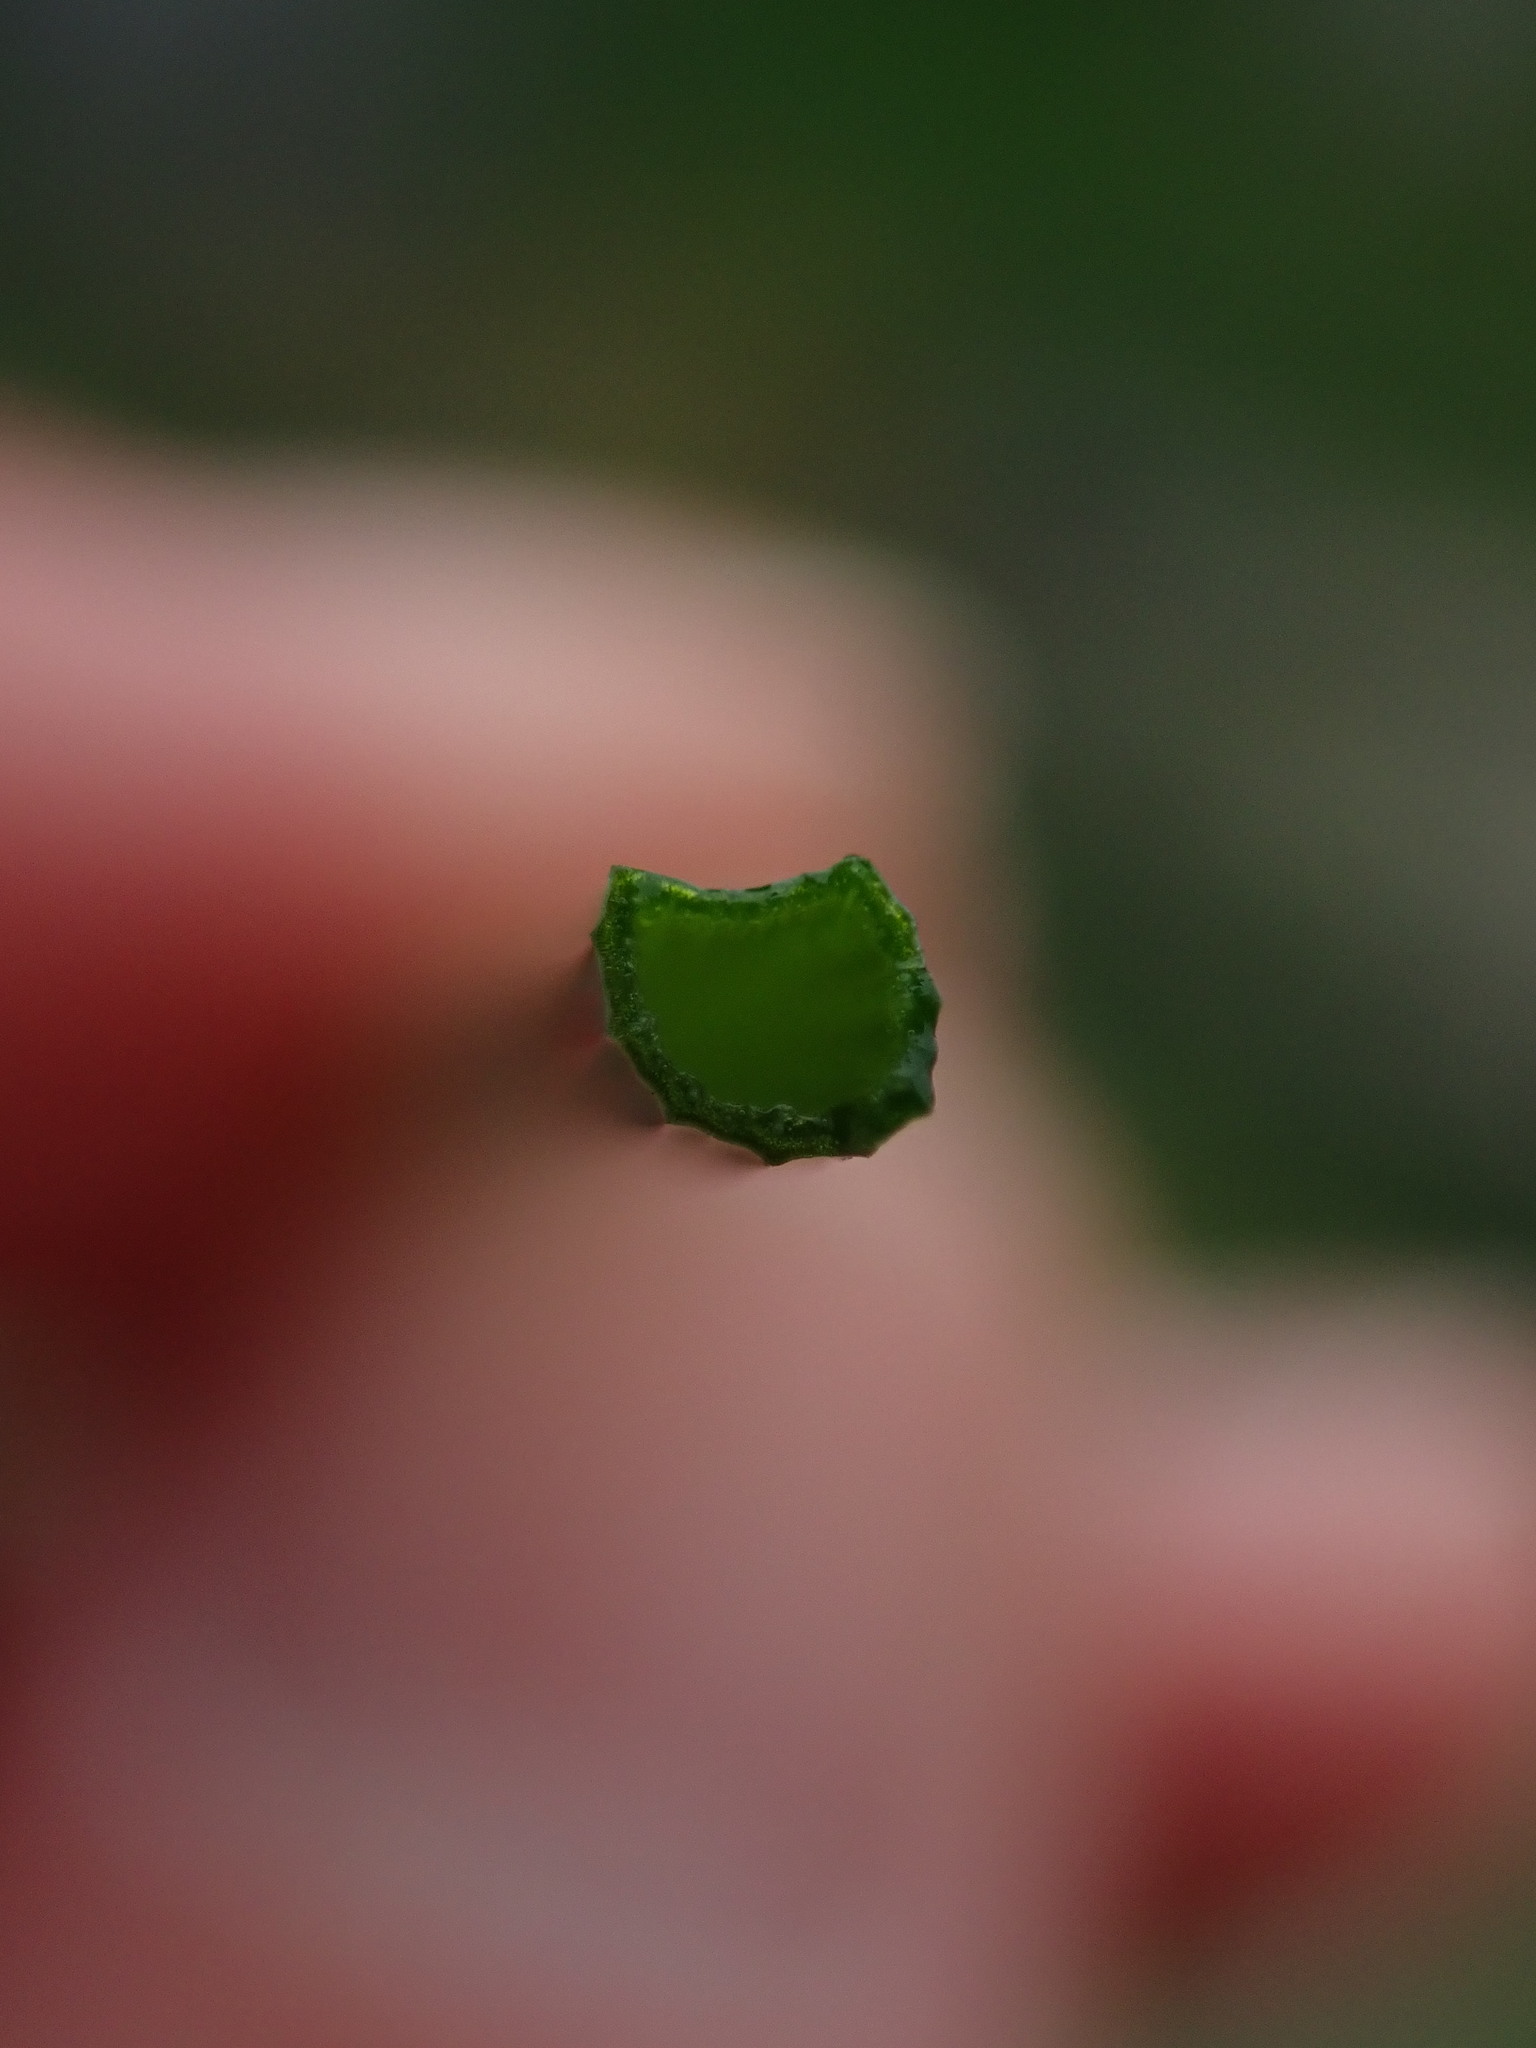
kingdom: Plantae
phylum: Tracheophyta
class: Liliopsida
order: Asparagales
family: Amaryllidaceae
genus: Allium
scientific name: Allium vineale
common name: Crow garlic
